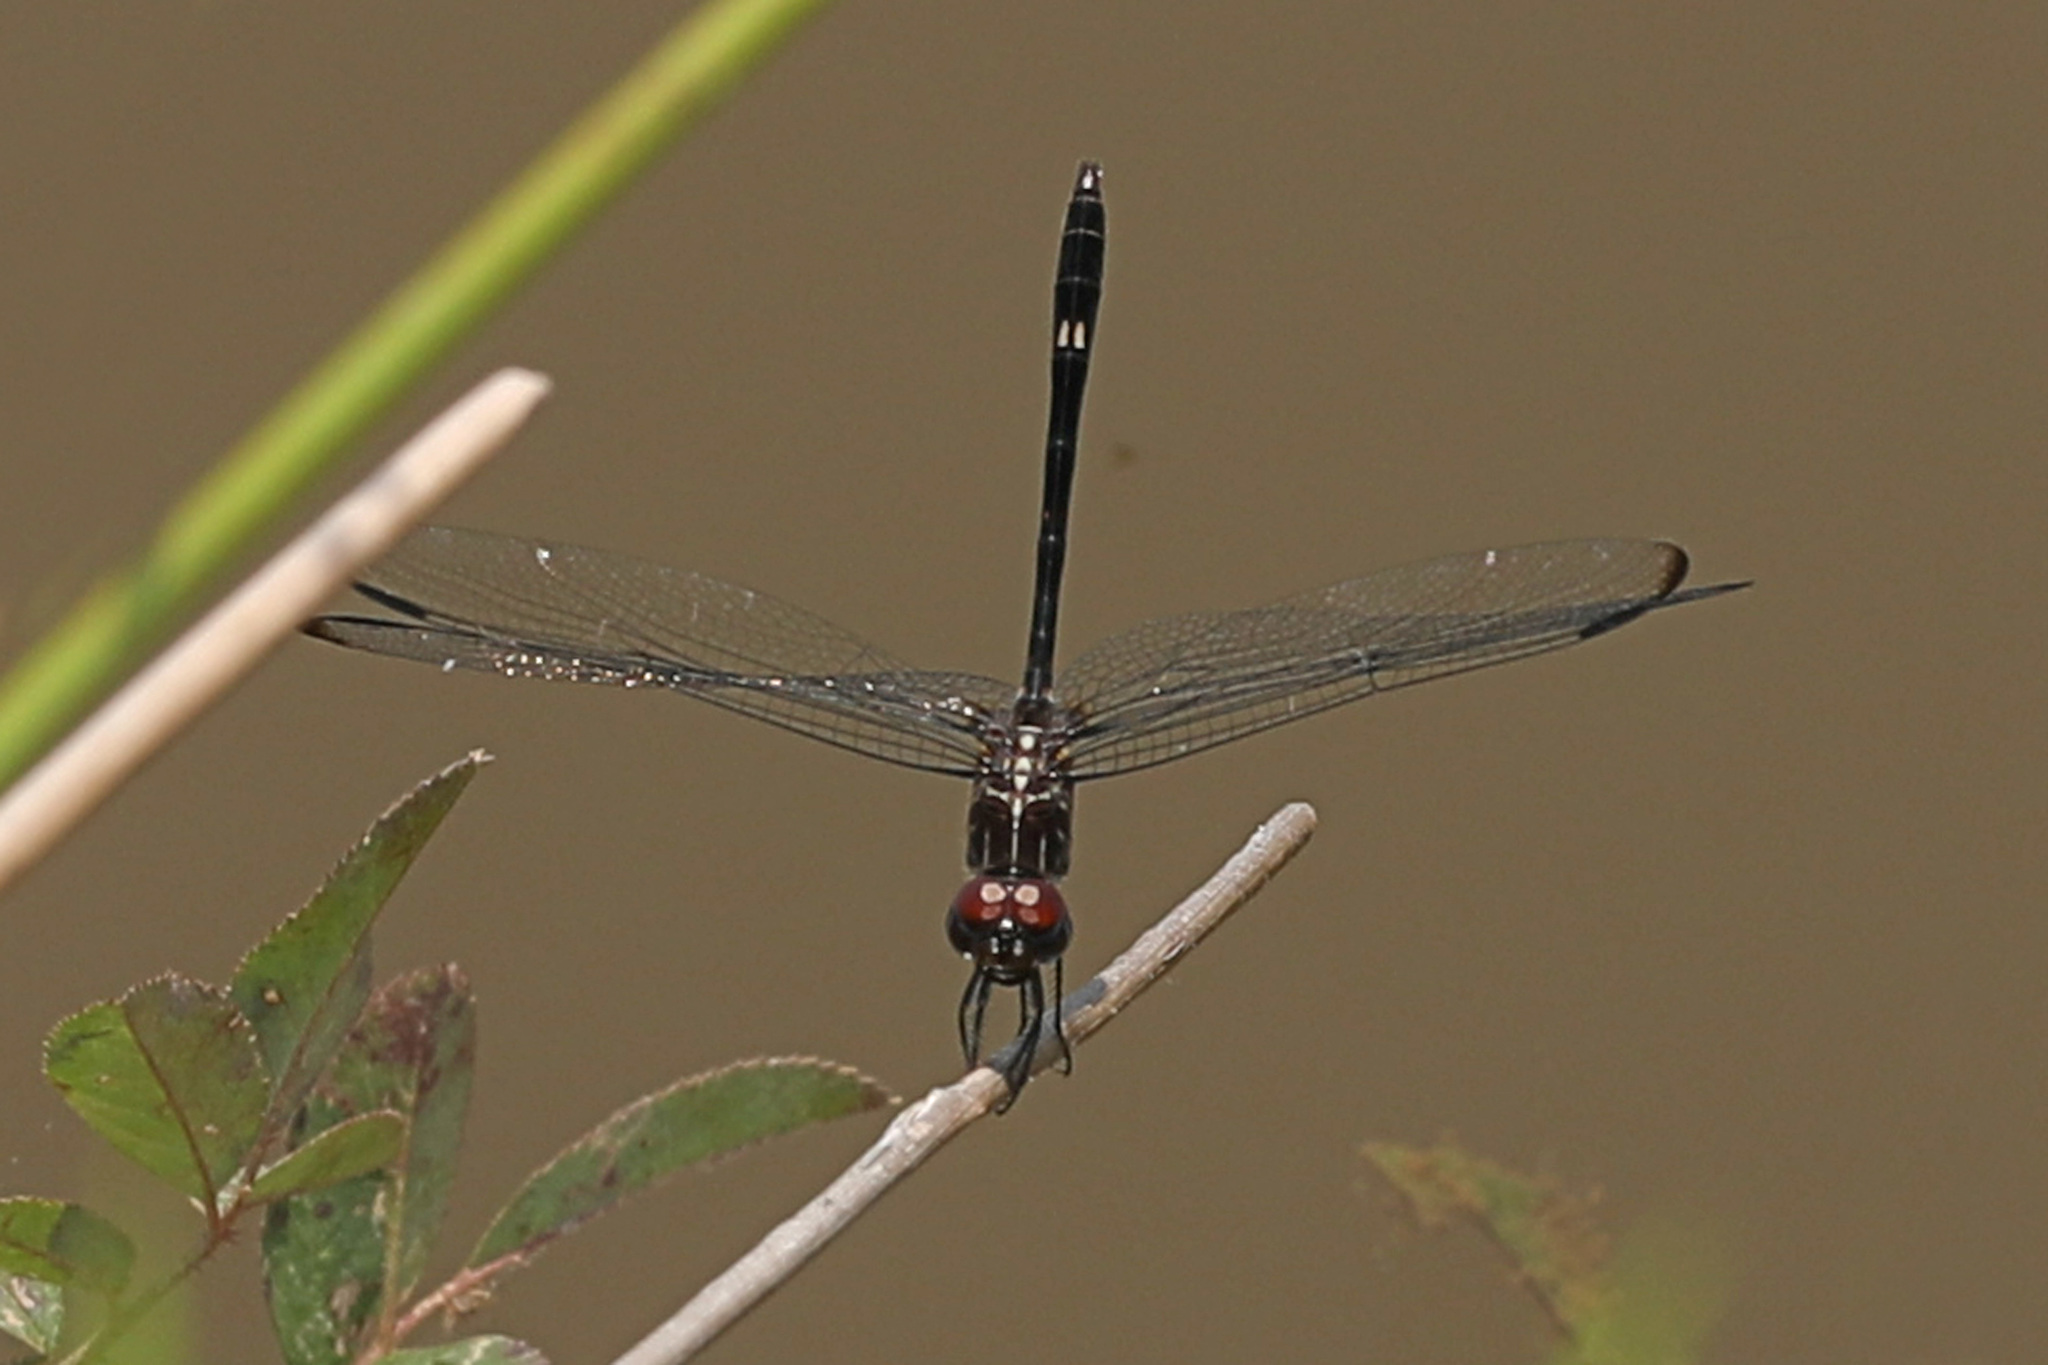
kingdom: Animalia
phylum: Arthropoda
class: Insecta
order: Odonata
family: Libellulidae
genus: Dythemis
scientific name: Dythemis velox
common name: Swift setwing
